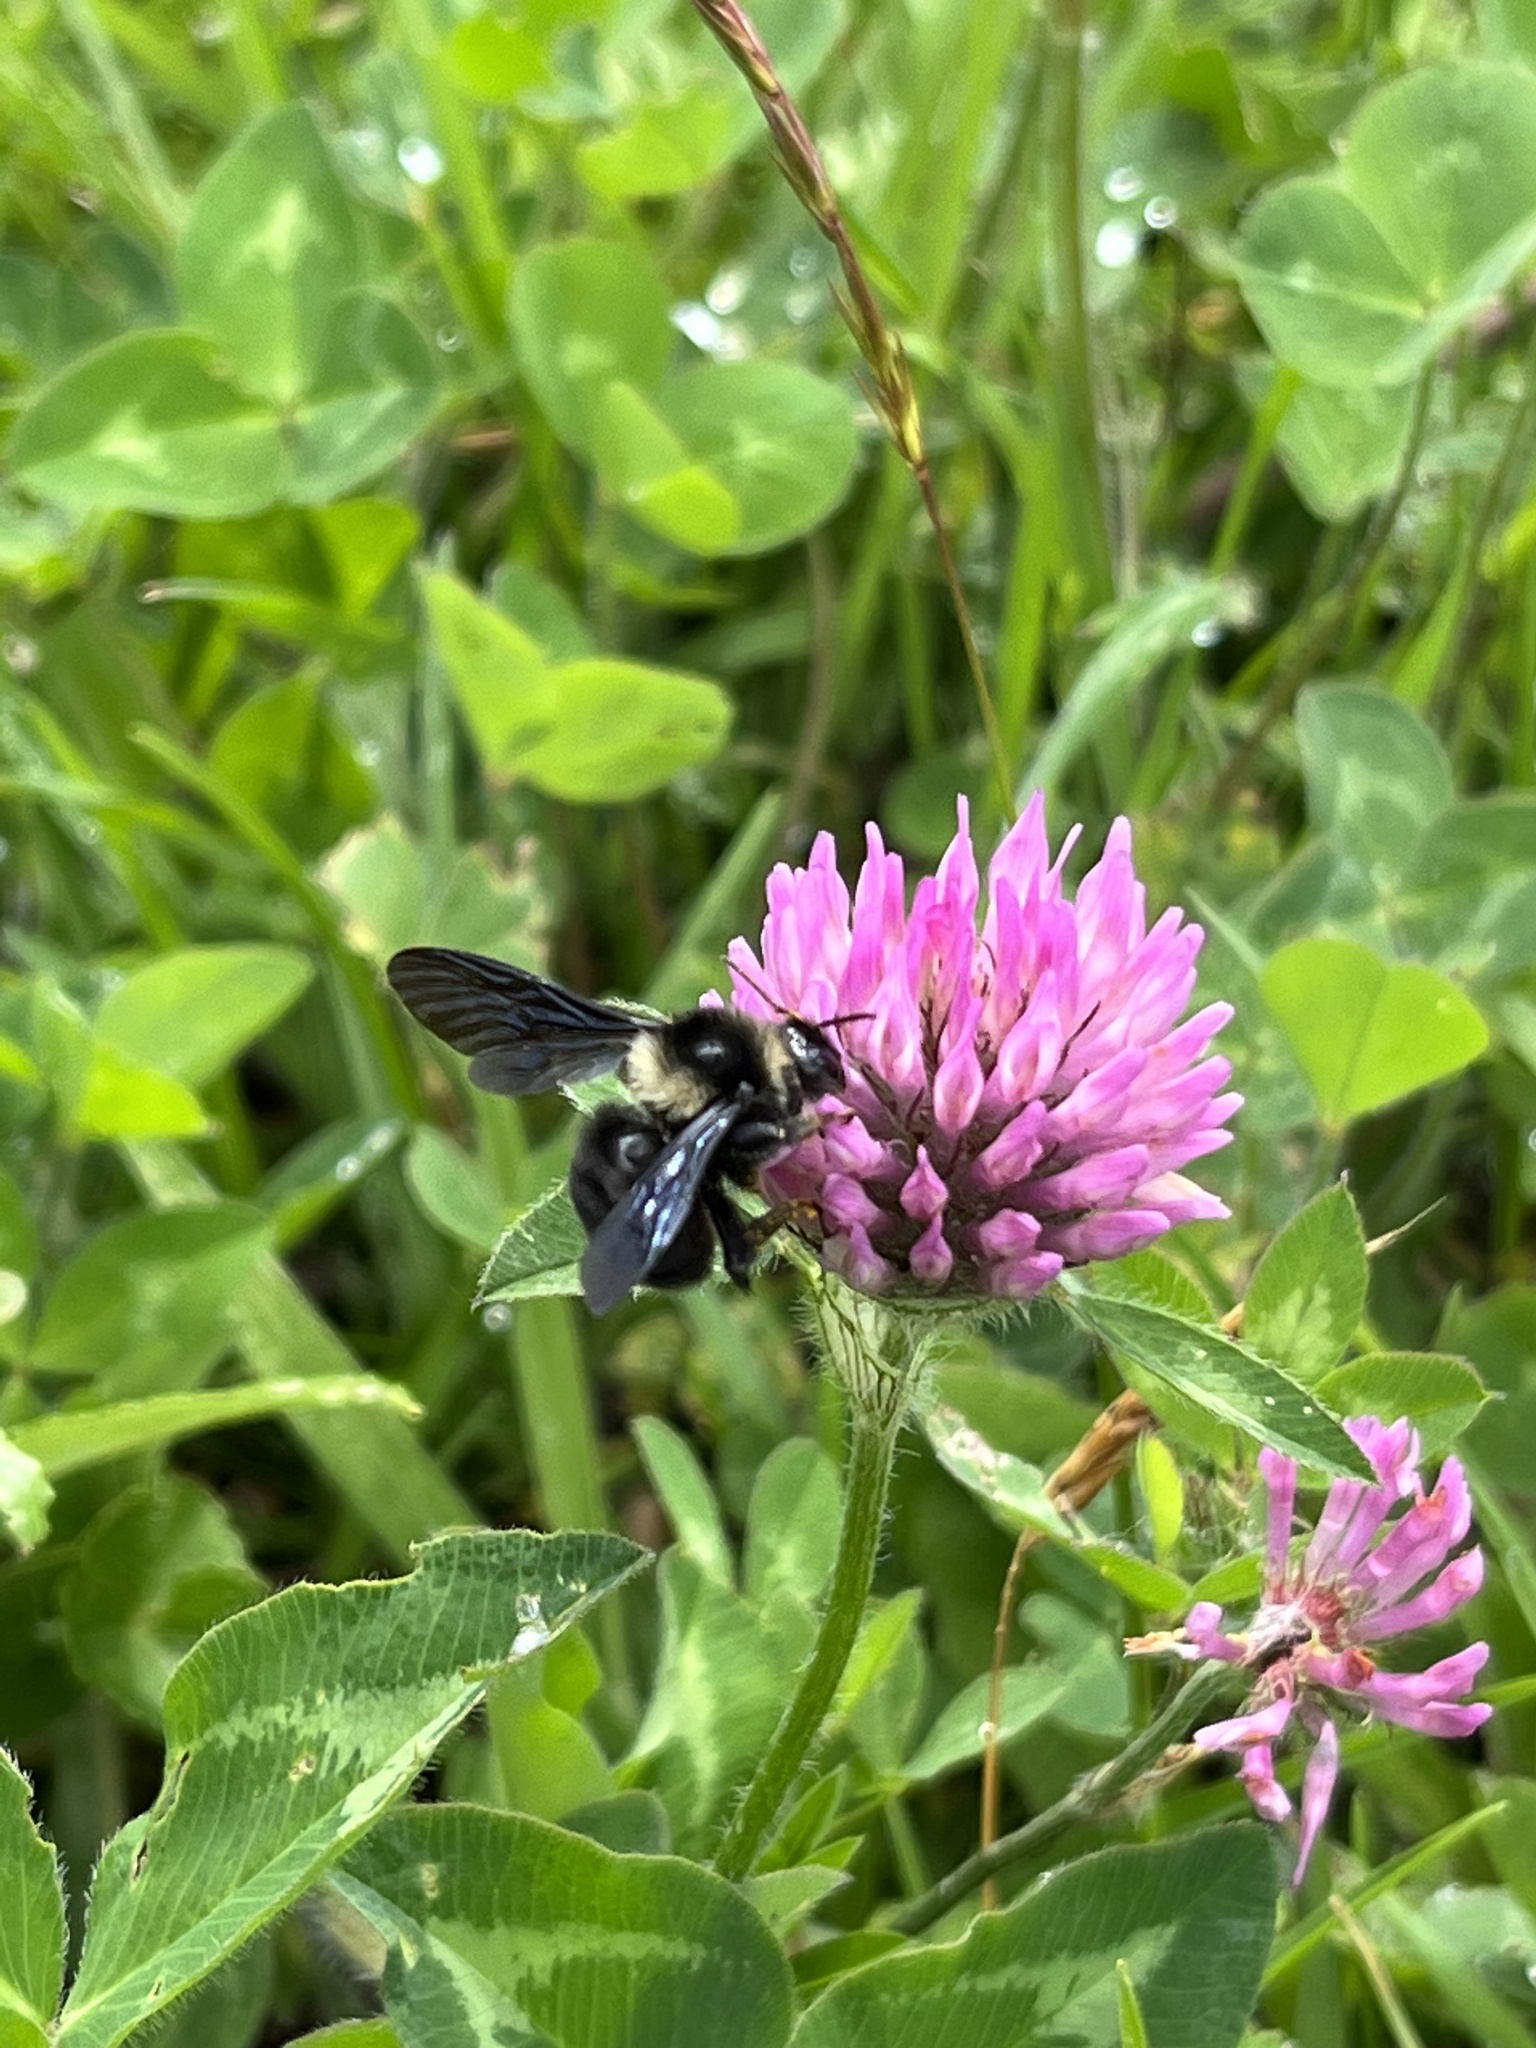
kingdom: Animalia
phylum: Arthropoda
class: Insecta
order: Hymenoptera
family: Apidae
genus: Bombus
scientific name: Bombus pauloensis
